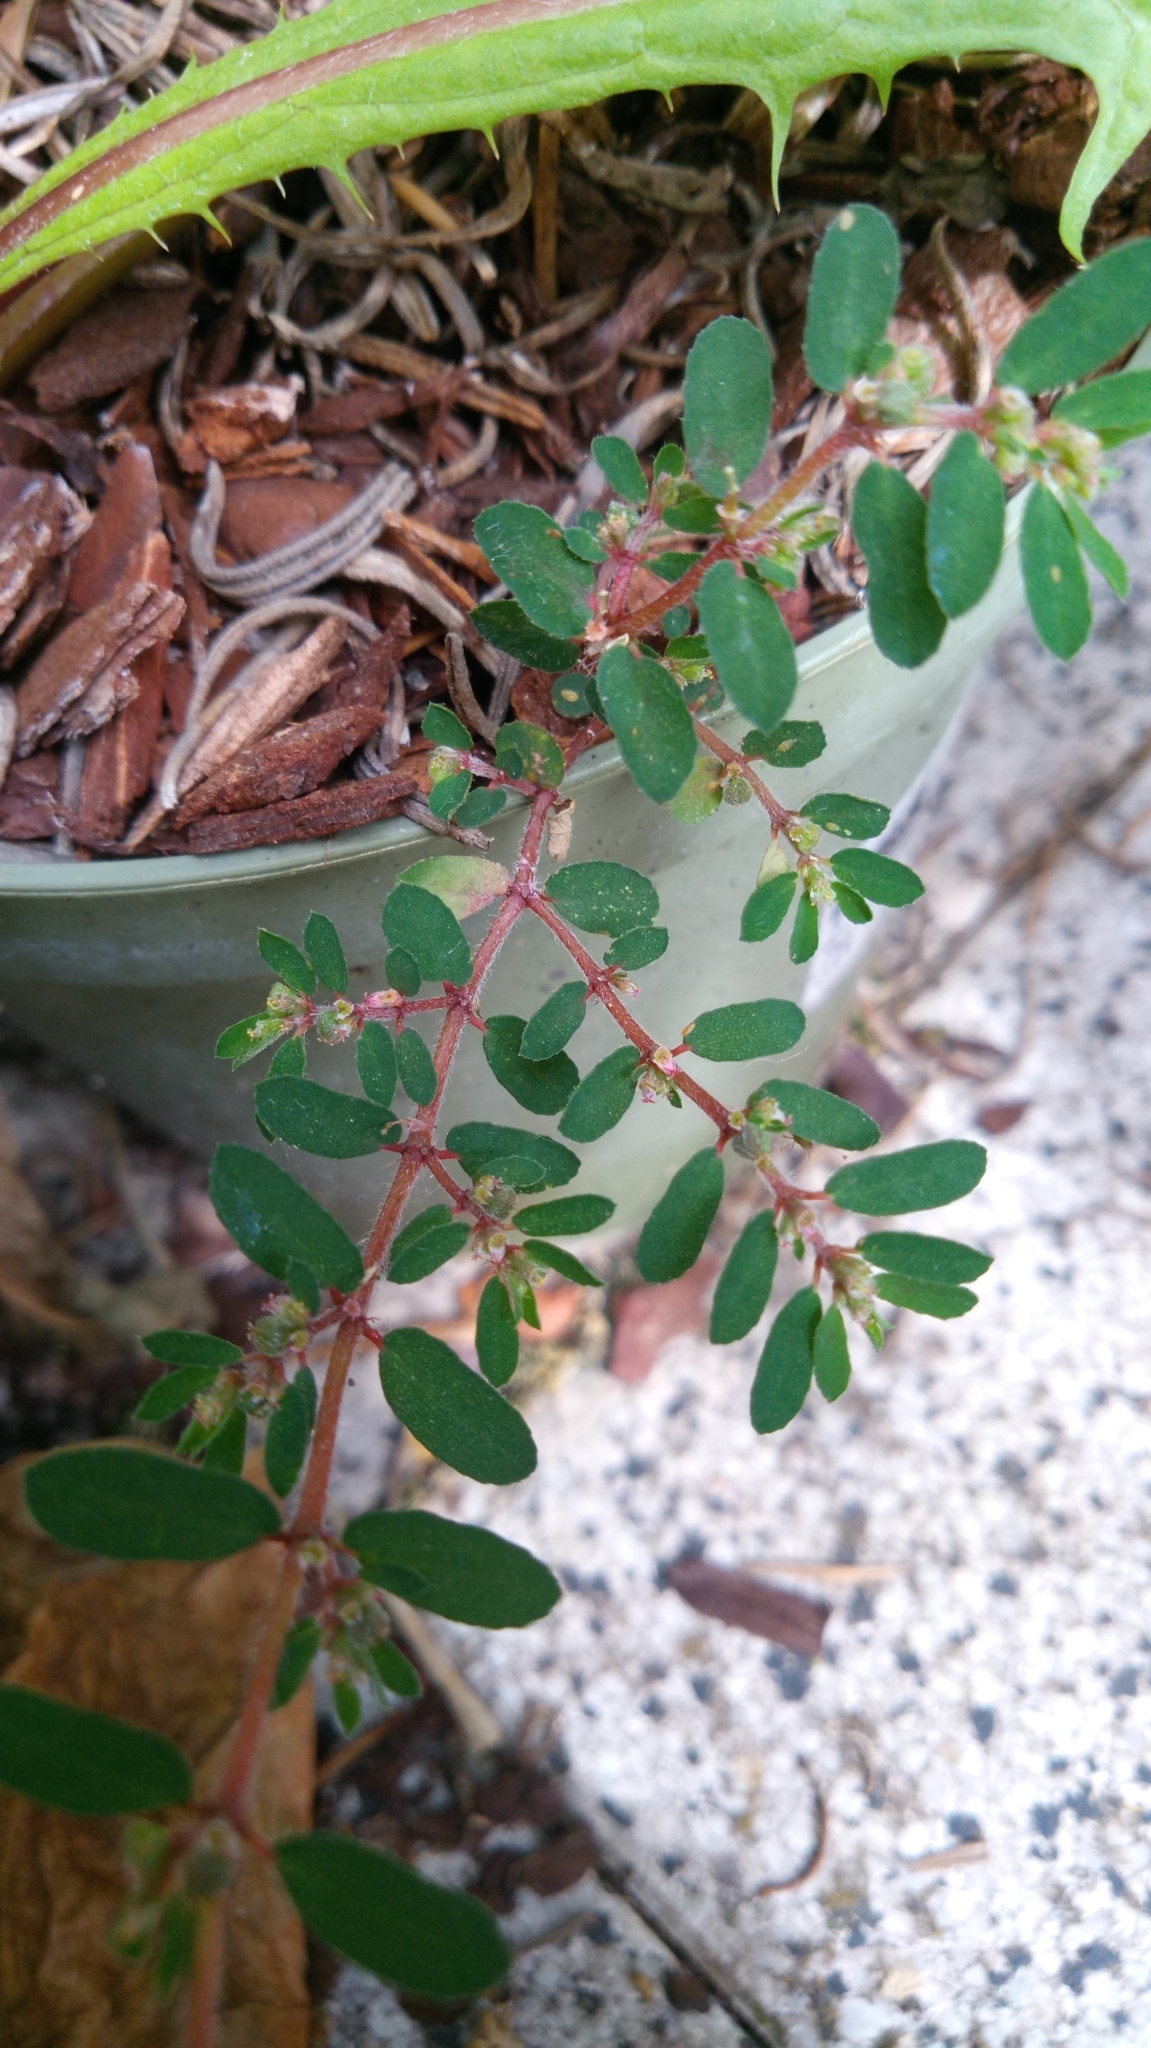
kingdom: Plantae
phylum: Tracheophyta
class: Magnoliopsida
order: Malpighiales
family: Euphorbiaceae
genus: Euphorbia
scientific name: Euphorbia maculata
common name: Spotted spurge
